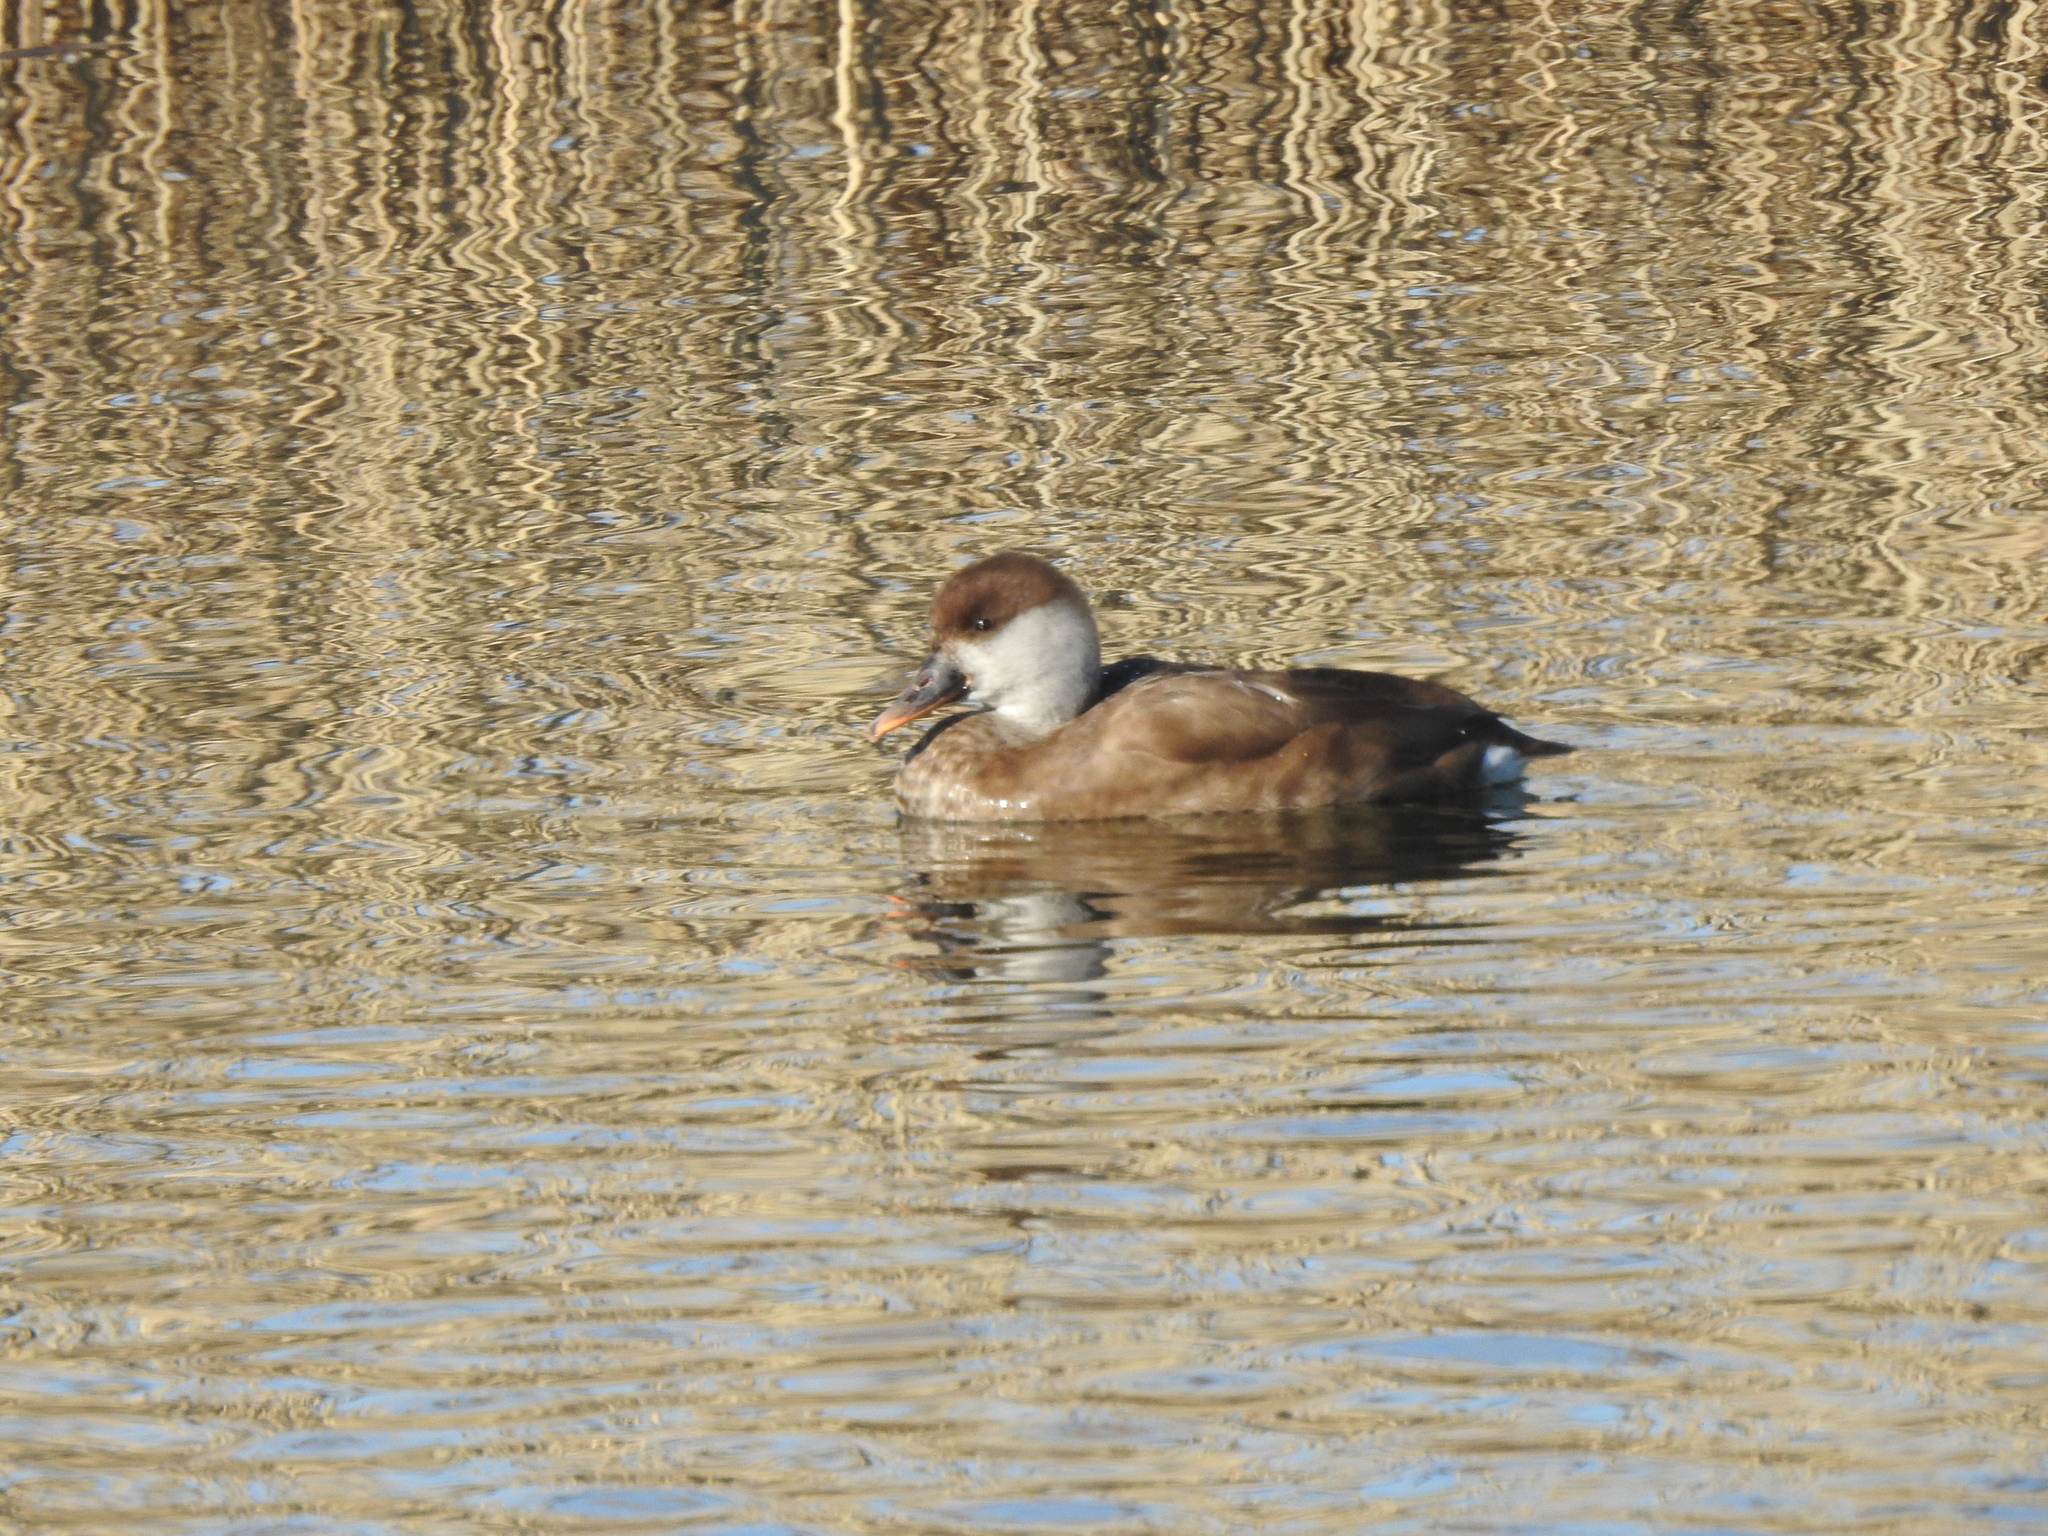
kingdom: Animalia
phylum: Chordata
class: Aves
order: Anseriformes
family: Anatidae
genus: Netta
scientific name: Netta rufina
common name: Red-crested pochard
